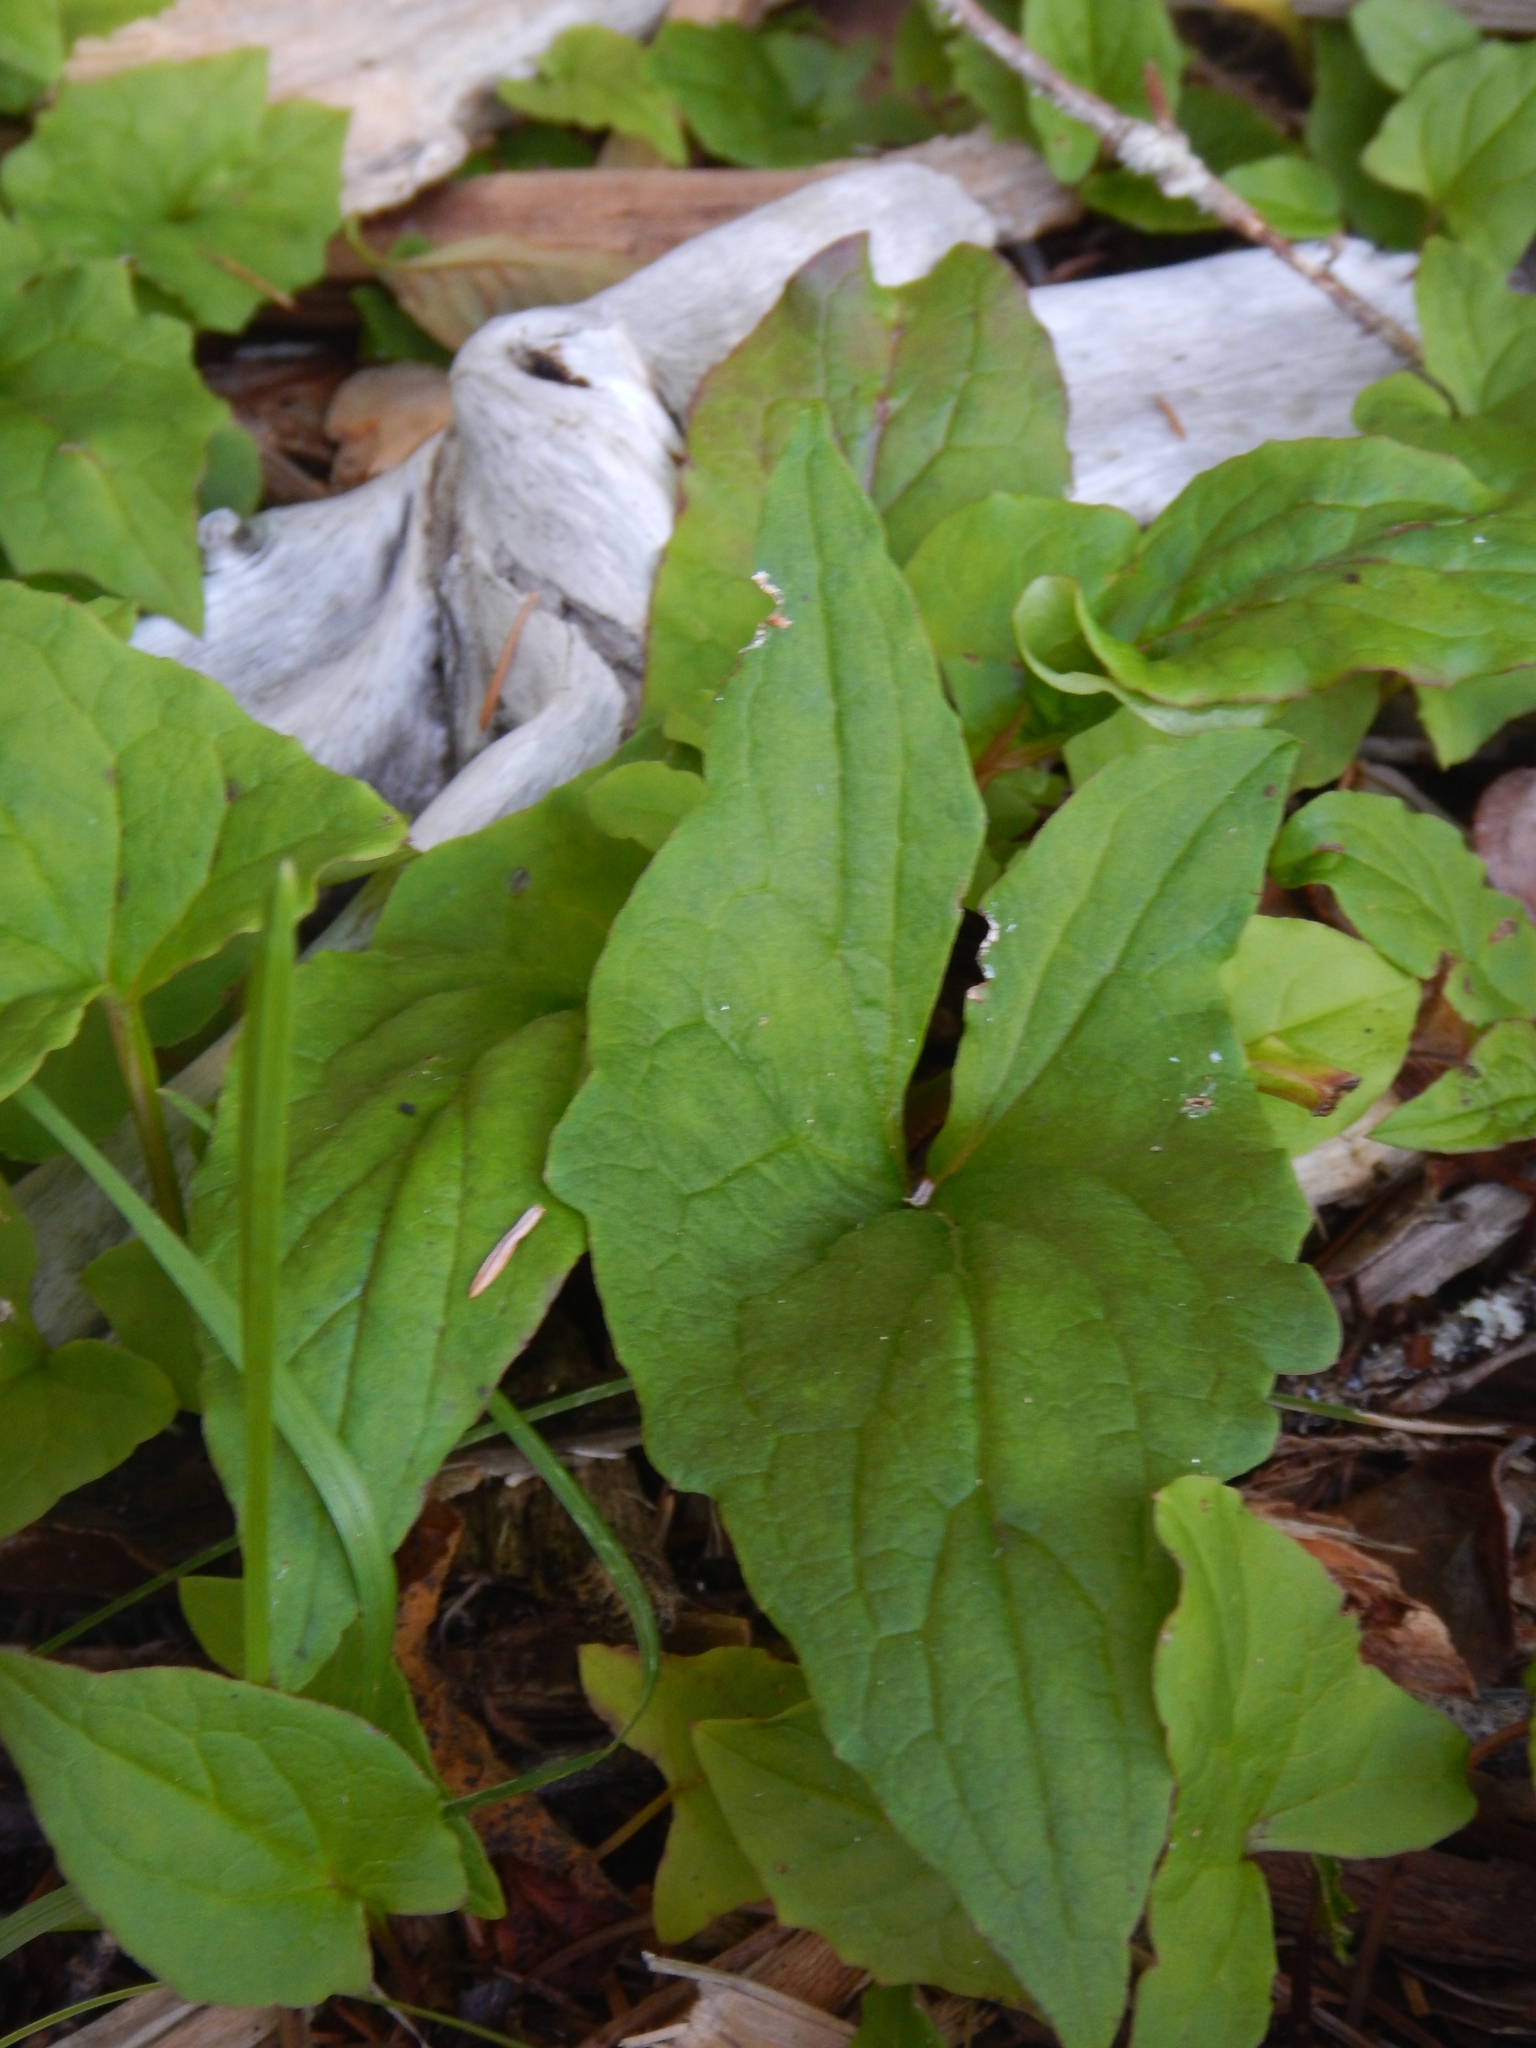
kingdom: Plantae
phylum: Tracheophyta
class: Magnoliopsida
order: Asterales
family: Asteraceae
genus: Nabalus
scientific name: Nabalus hastatus
